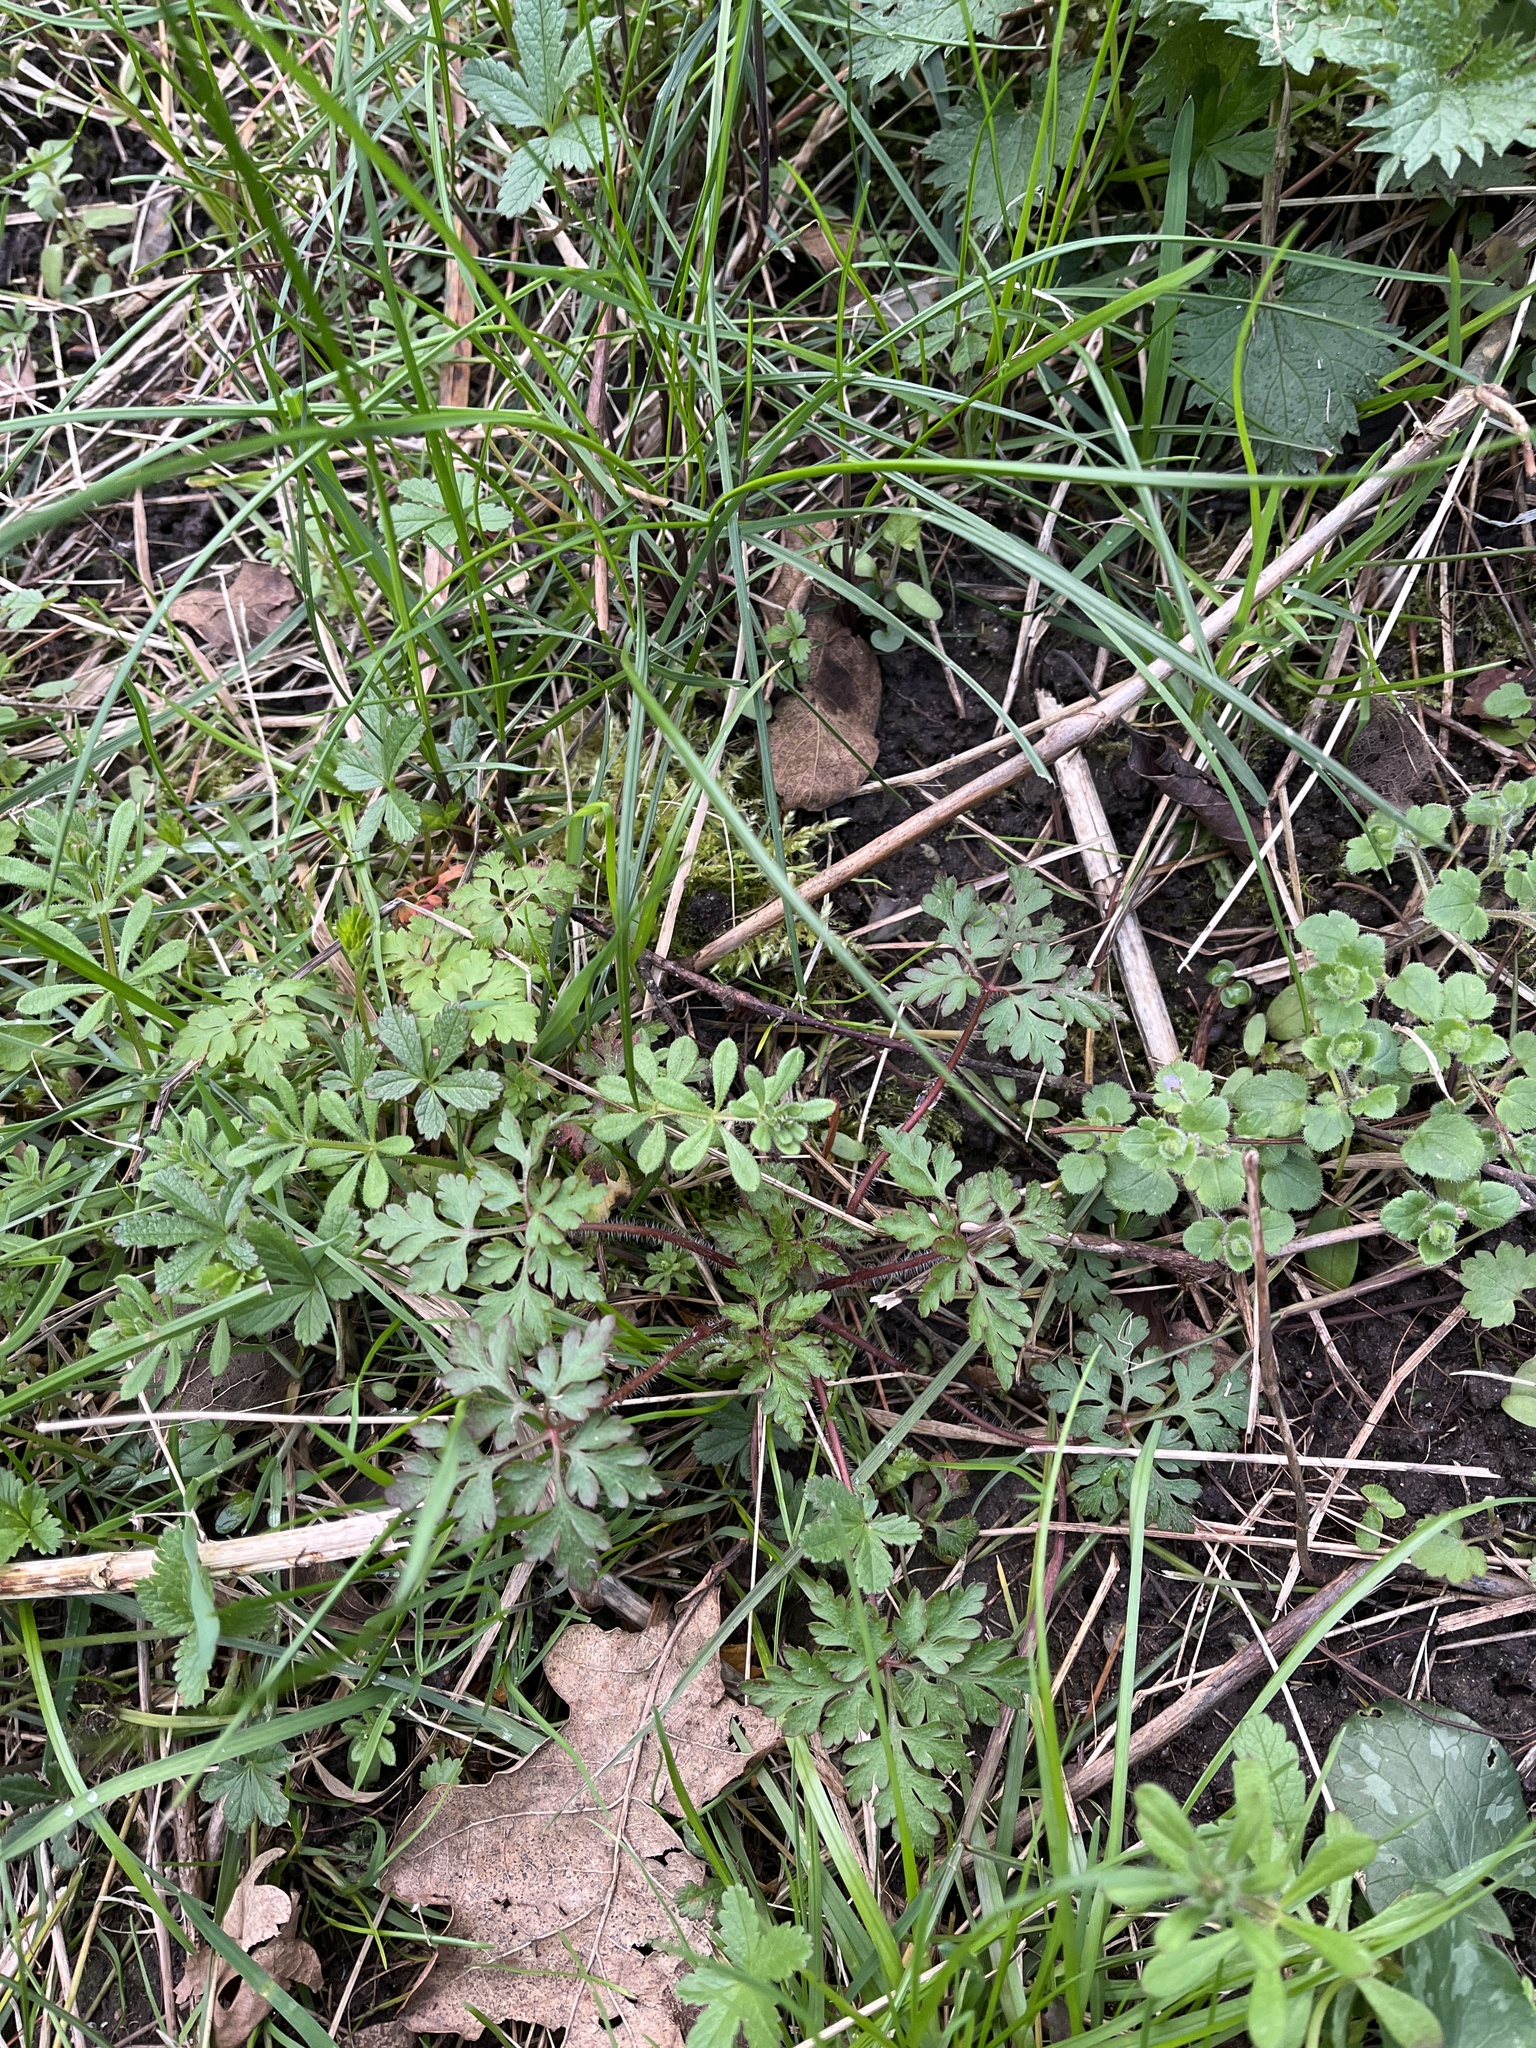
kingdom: Plantae
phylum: Tracheophyta
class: Magnoliopsida
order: Geraniales
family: Geraniaceae
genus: Geranium
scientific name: Geranium robertianum
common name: Herb-robert
